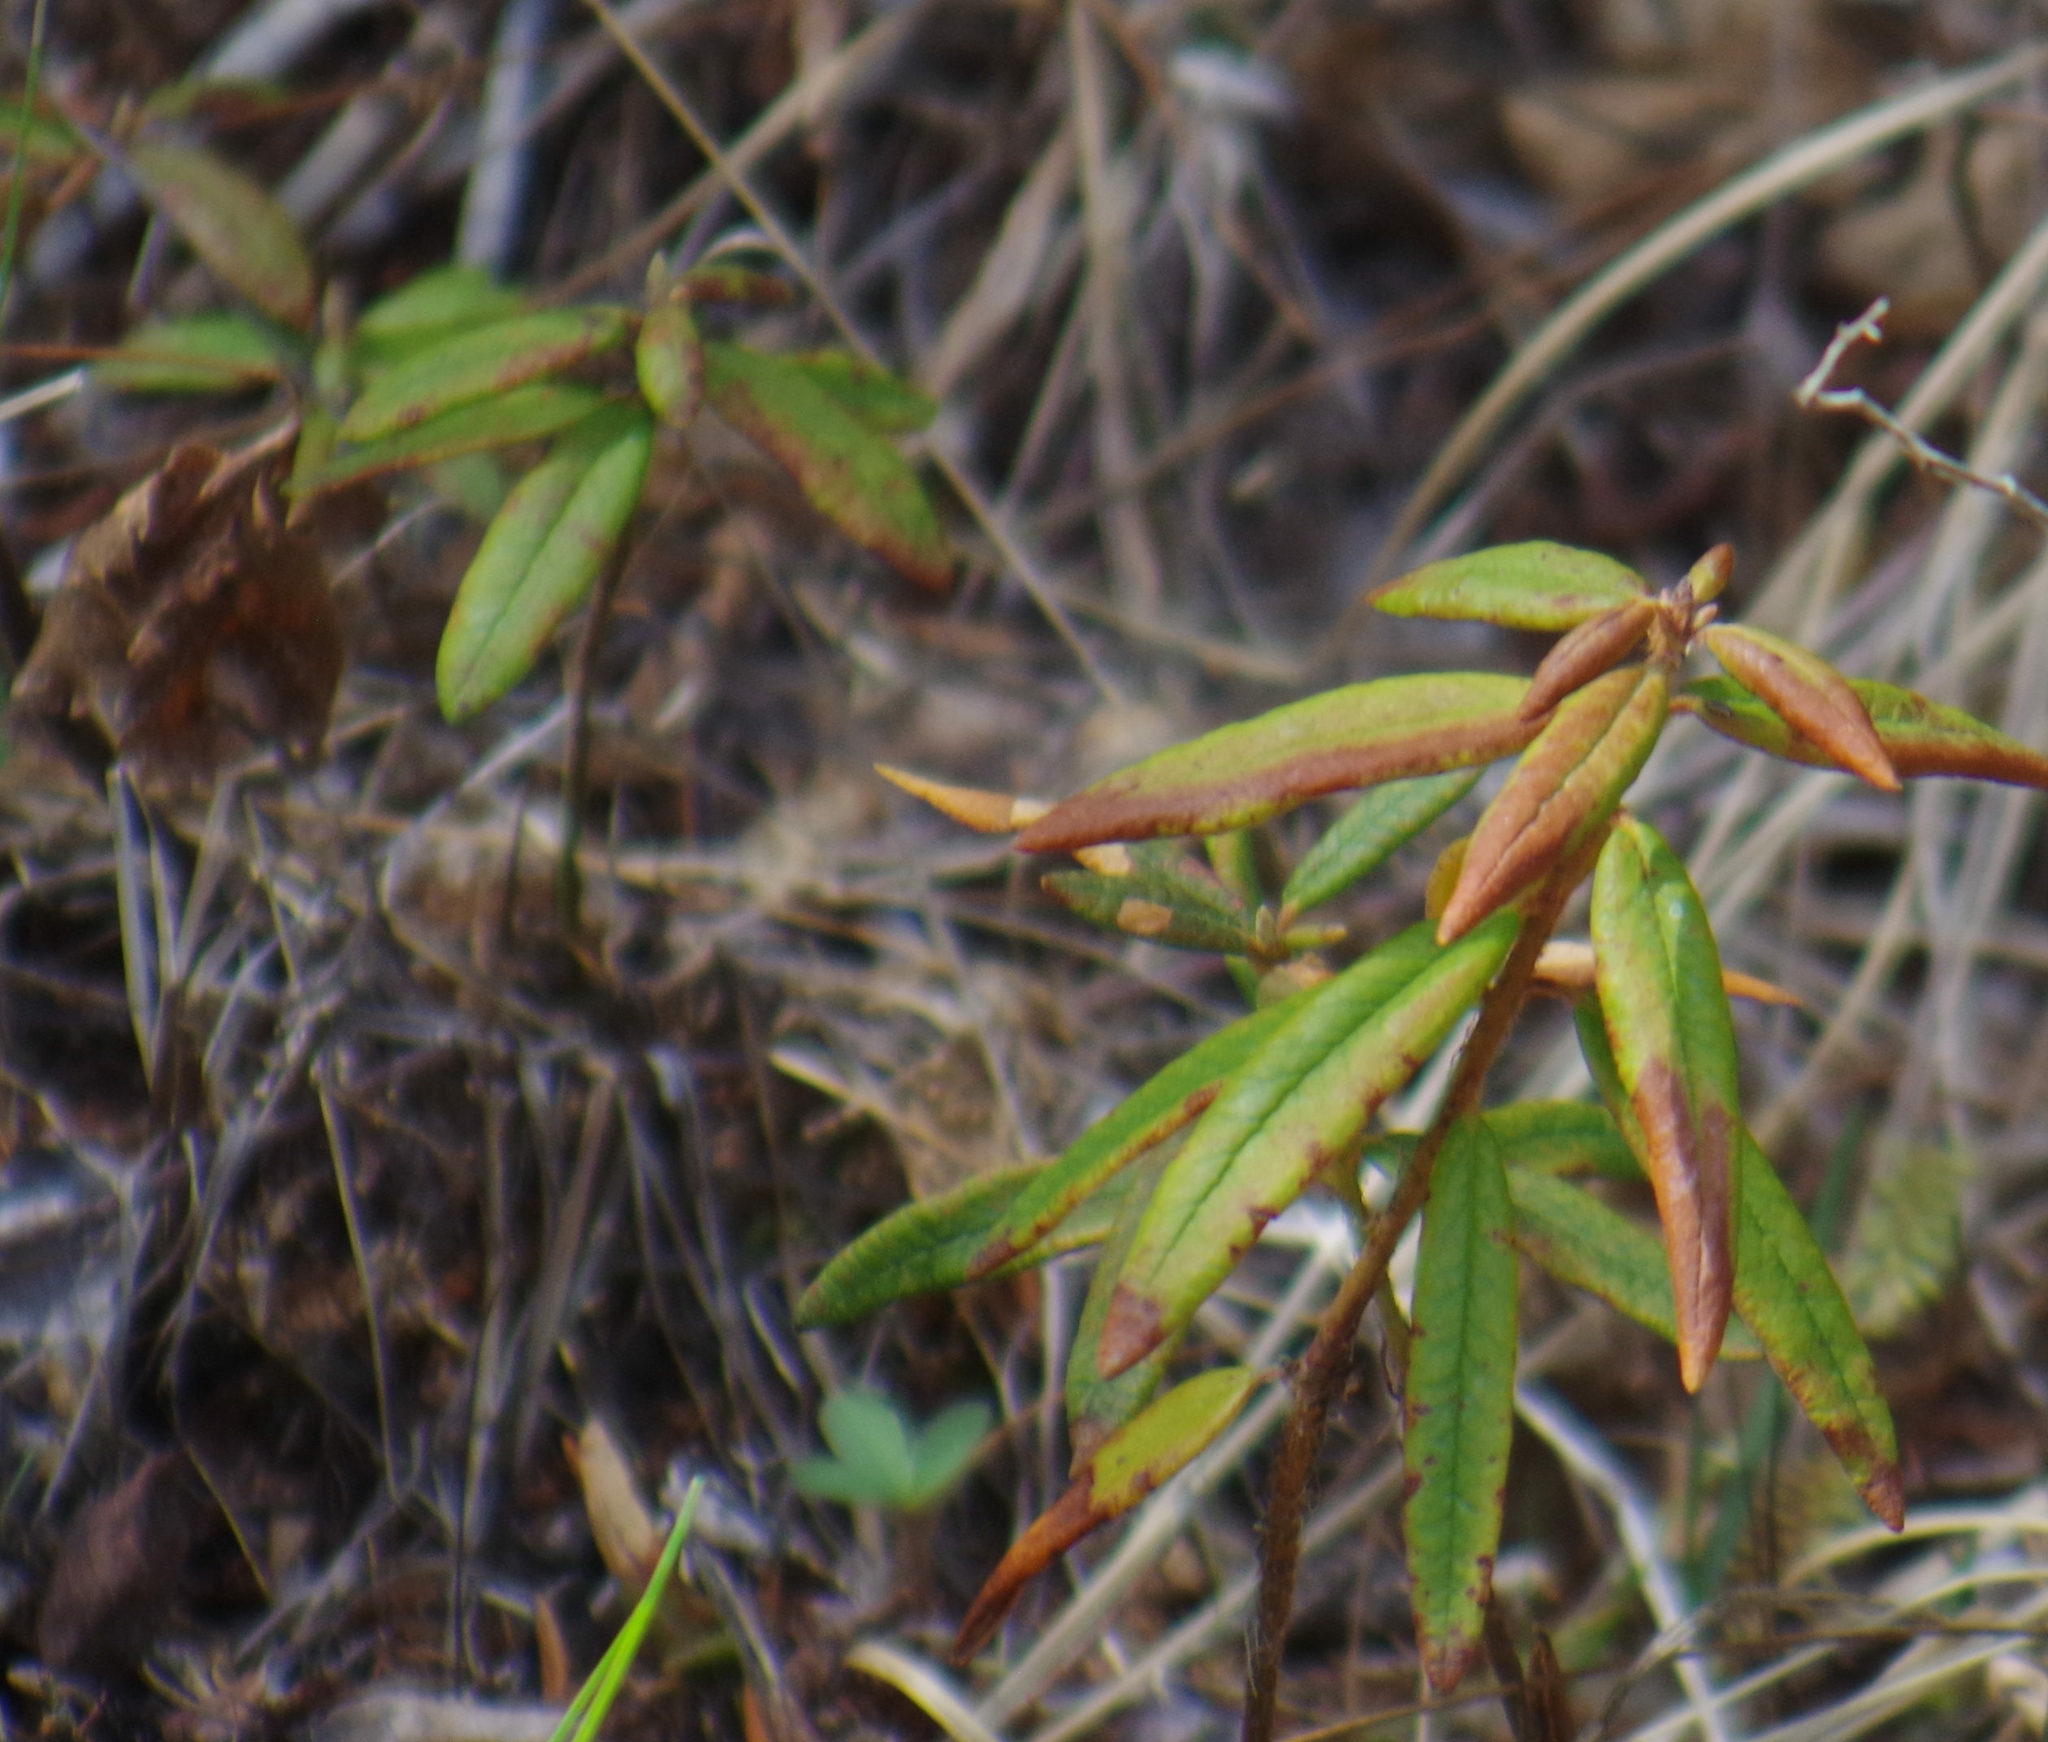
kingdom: Plantae
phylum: Tracheophyta
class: Magnoliopsida
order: Ericales
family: Ericaceae
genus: Rhododendron
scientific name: Rhododendron groenlandicum
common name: Bog labrador tea
